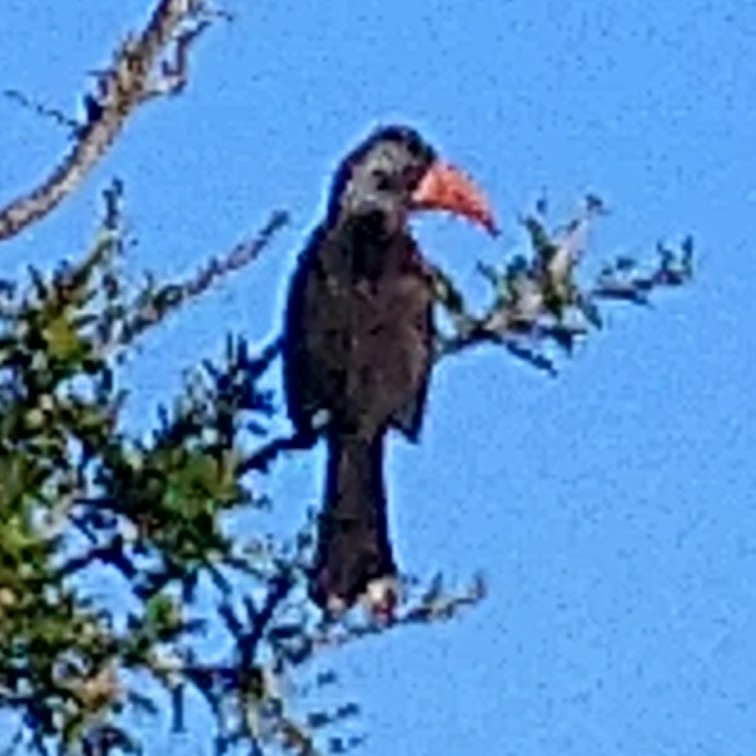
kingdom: Animalia
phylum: Chordata
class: Aves
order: Bucerotiformes
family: Bucerotidae
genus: Lophoceros
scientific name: Lophoceros alboterminatus
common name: Crowned hornbill
